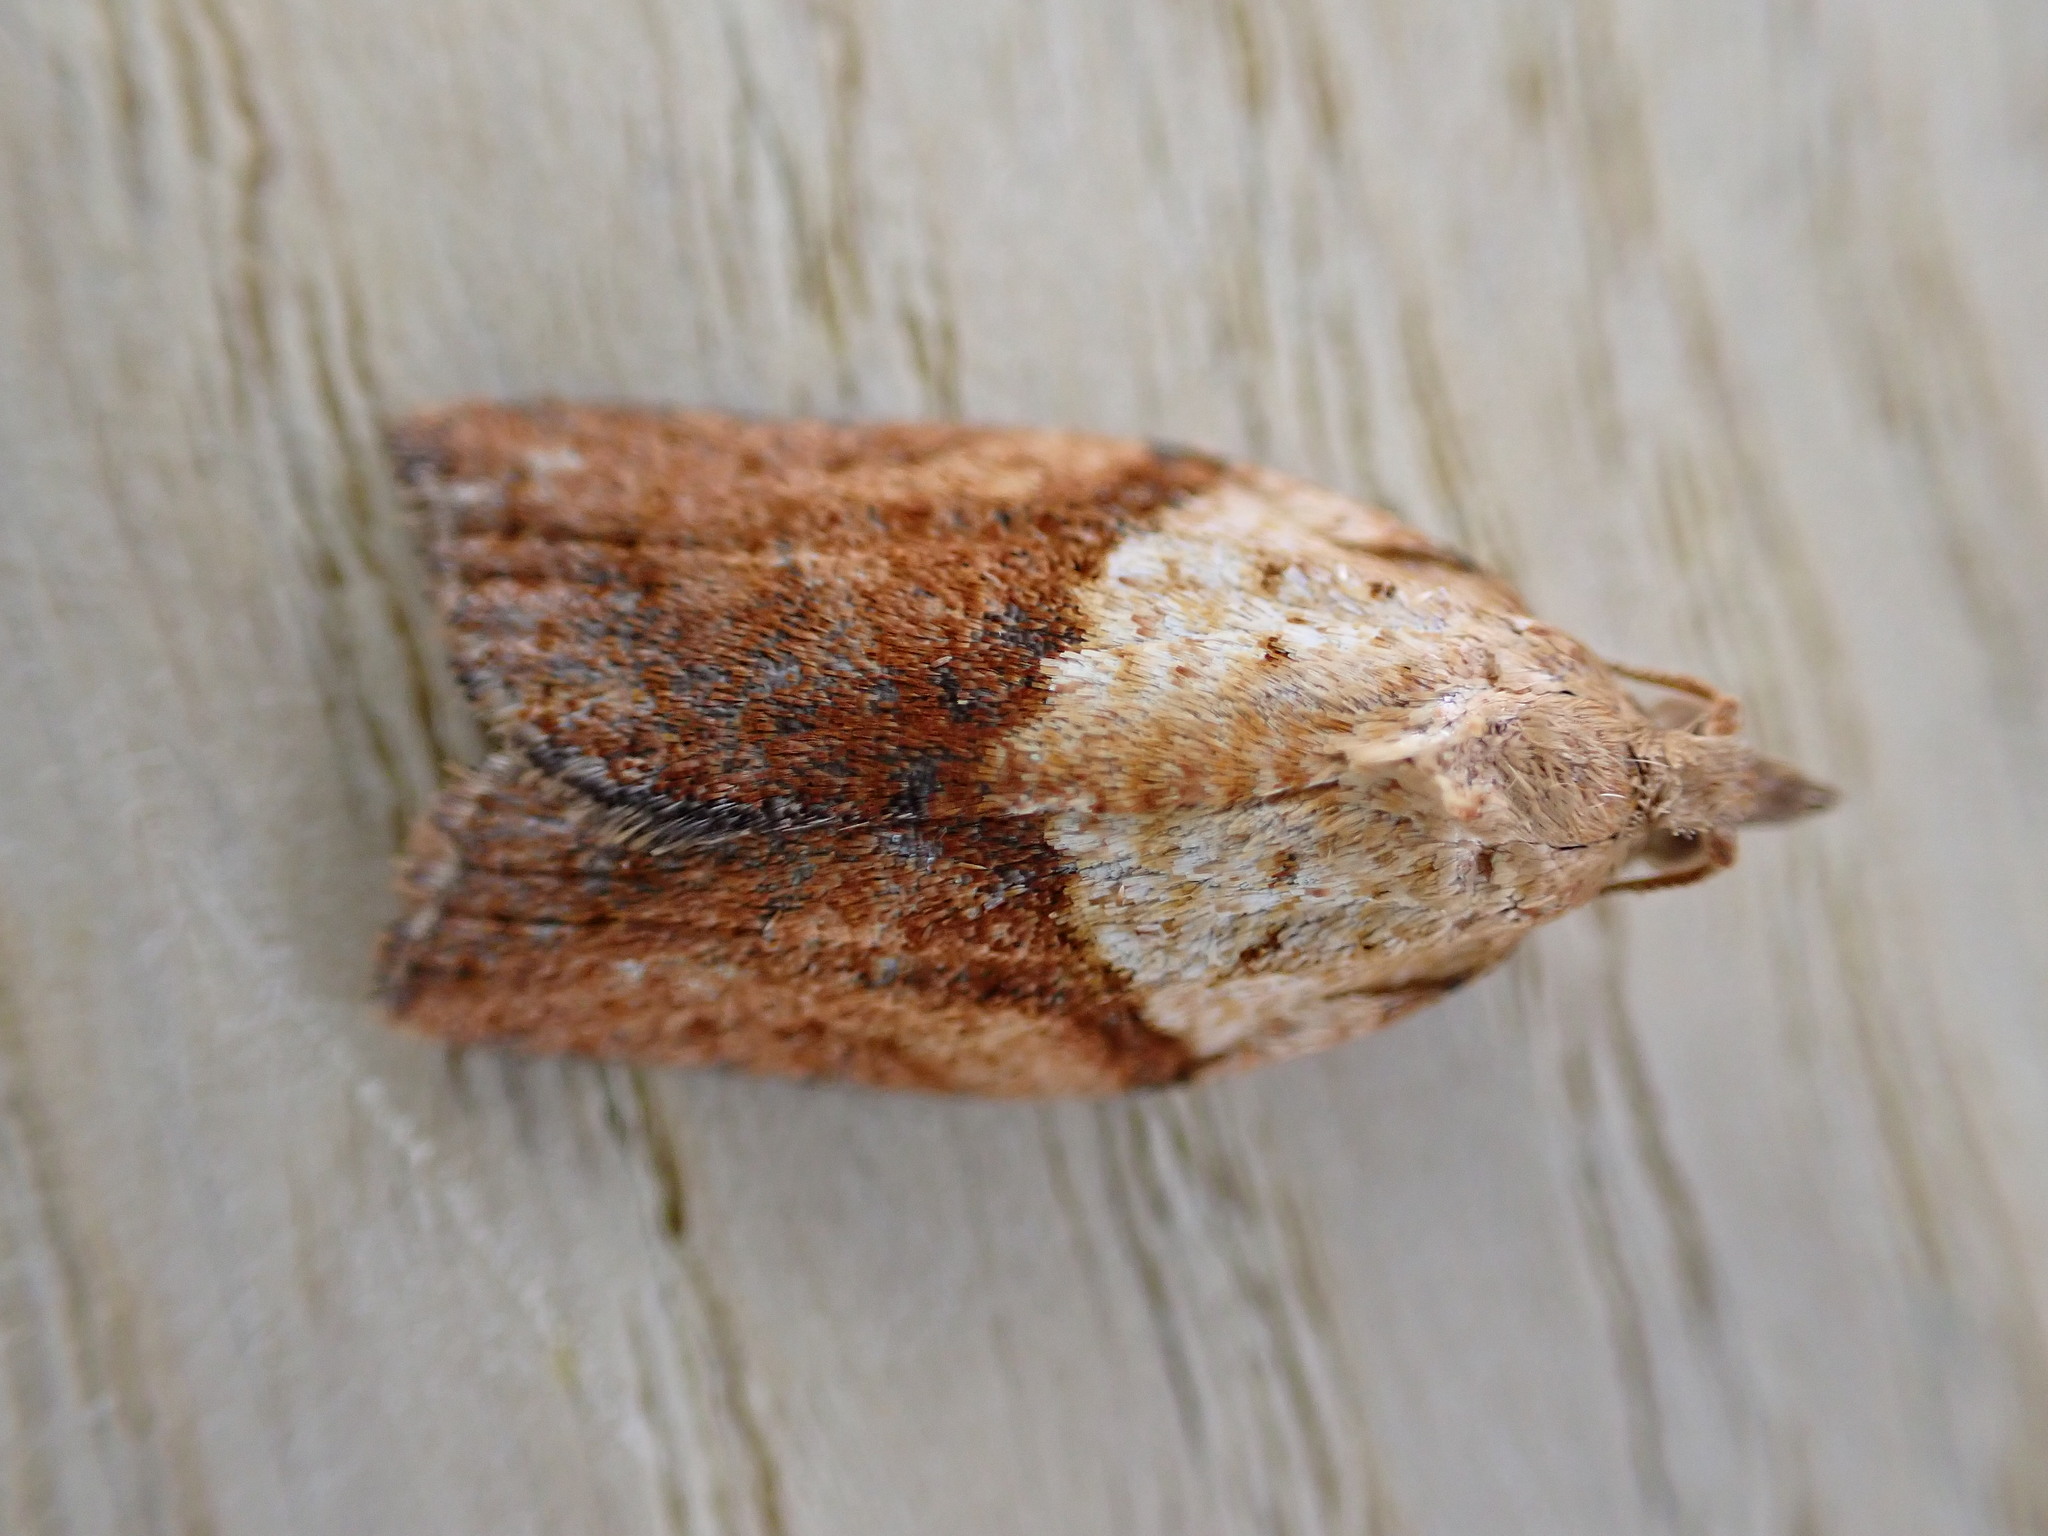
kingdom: Animalia
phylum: Arthropoda
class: Insecta
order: Lepidoptera
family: Tortricidae
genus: Epiphyas
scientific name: Epiphyas postvittana
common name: Light brown apple moth
